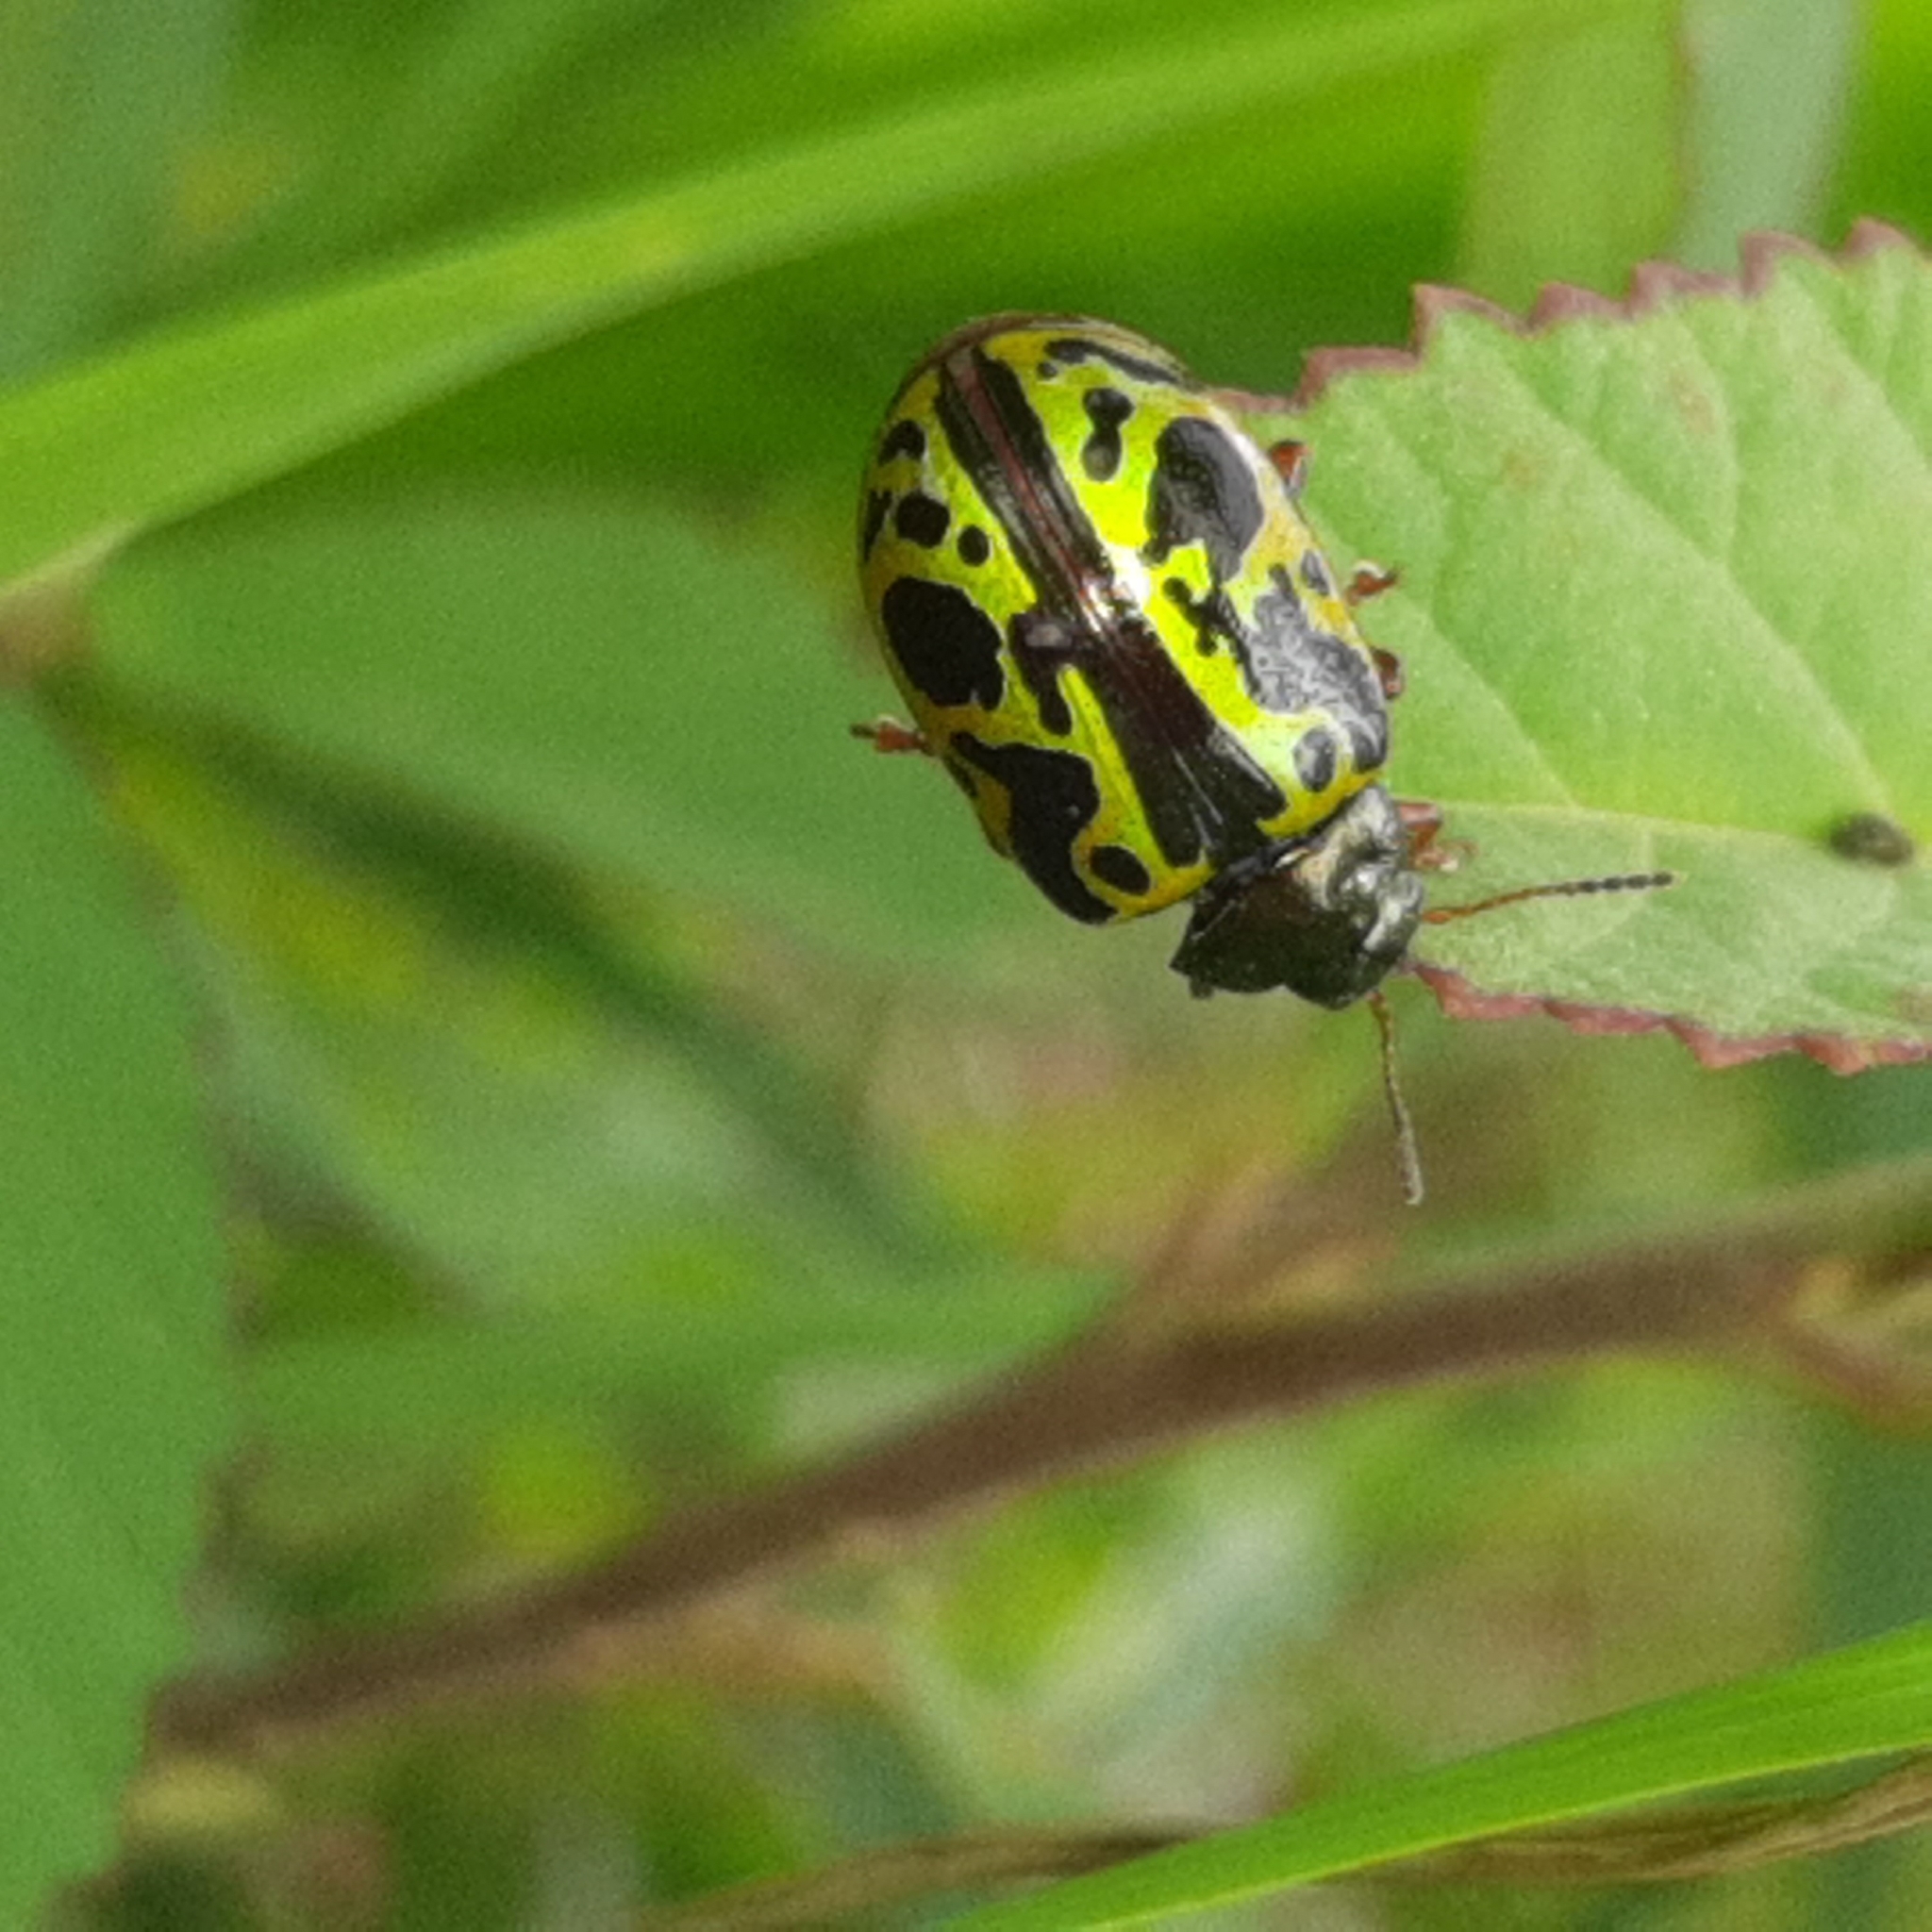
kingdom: Animalia
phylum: Arthropoda
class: Insecta
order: Coleoptera
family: Chrysomelidae
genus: Calligrapha
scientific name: Calligrapha fulvipes
